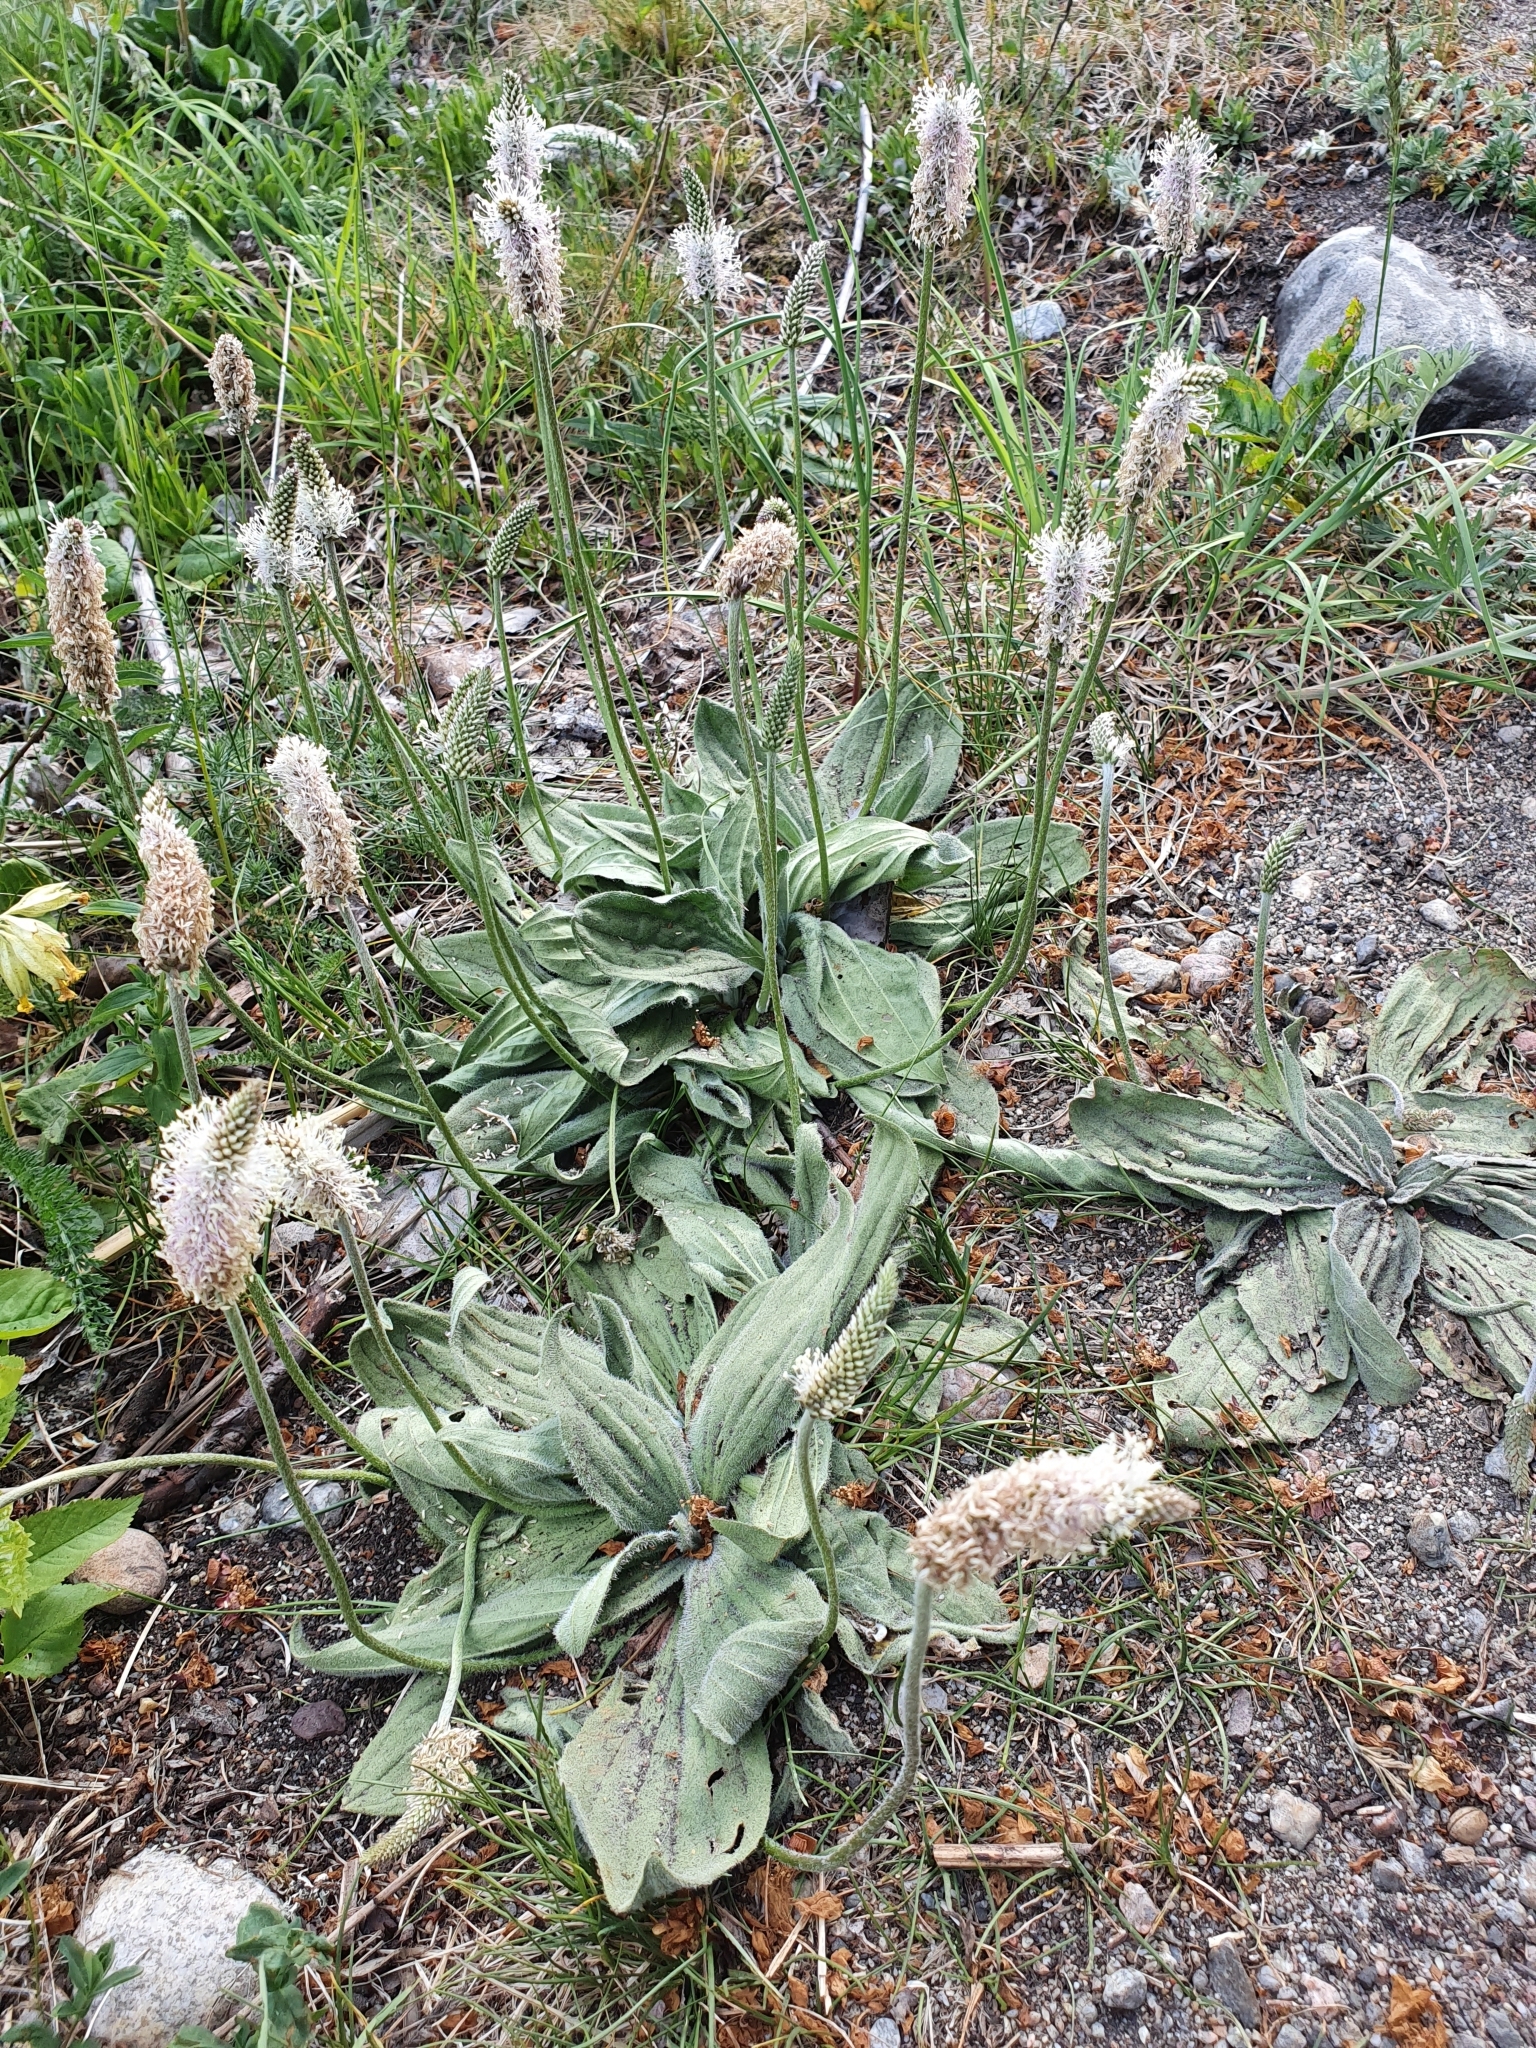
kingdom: Plantae
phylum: Tracheophyta
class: Magnoliopsida
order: Lamiales
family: Plantaginaceae
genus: Plantago
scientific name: Plantago media
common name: Hoary plantain
